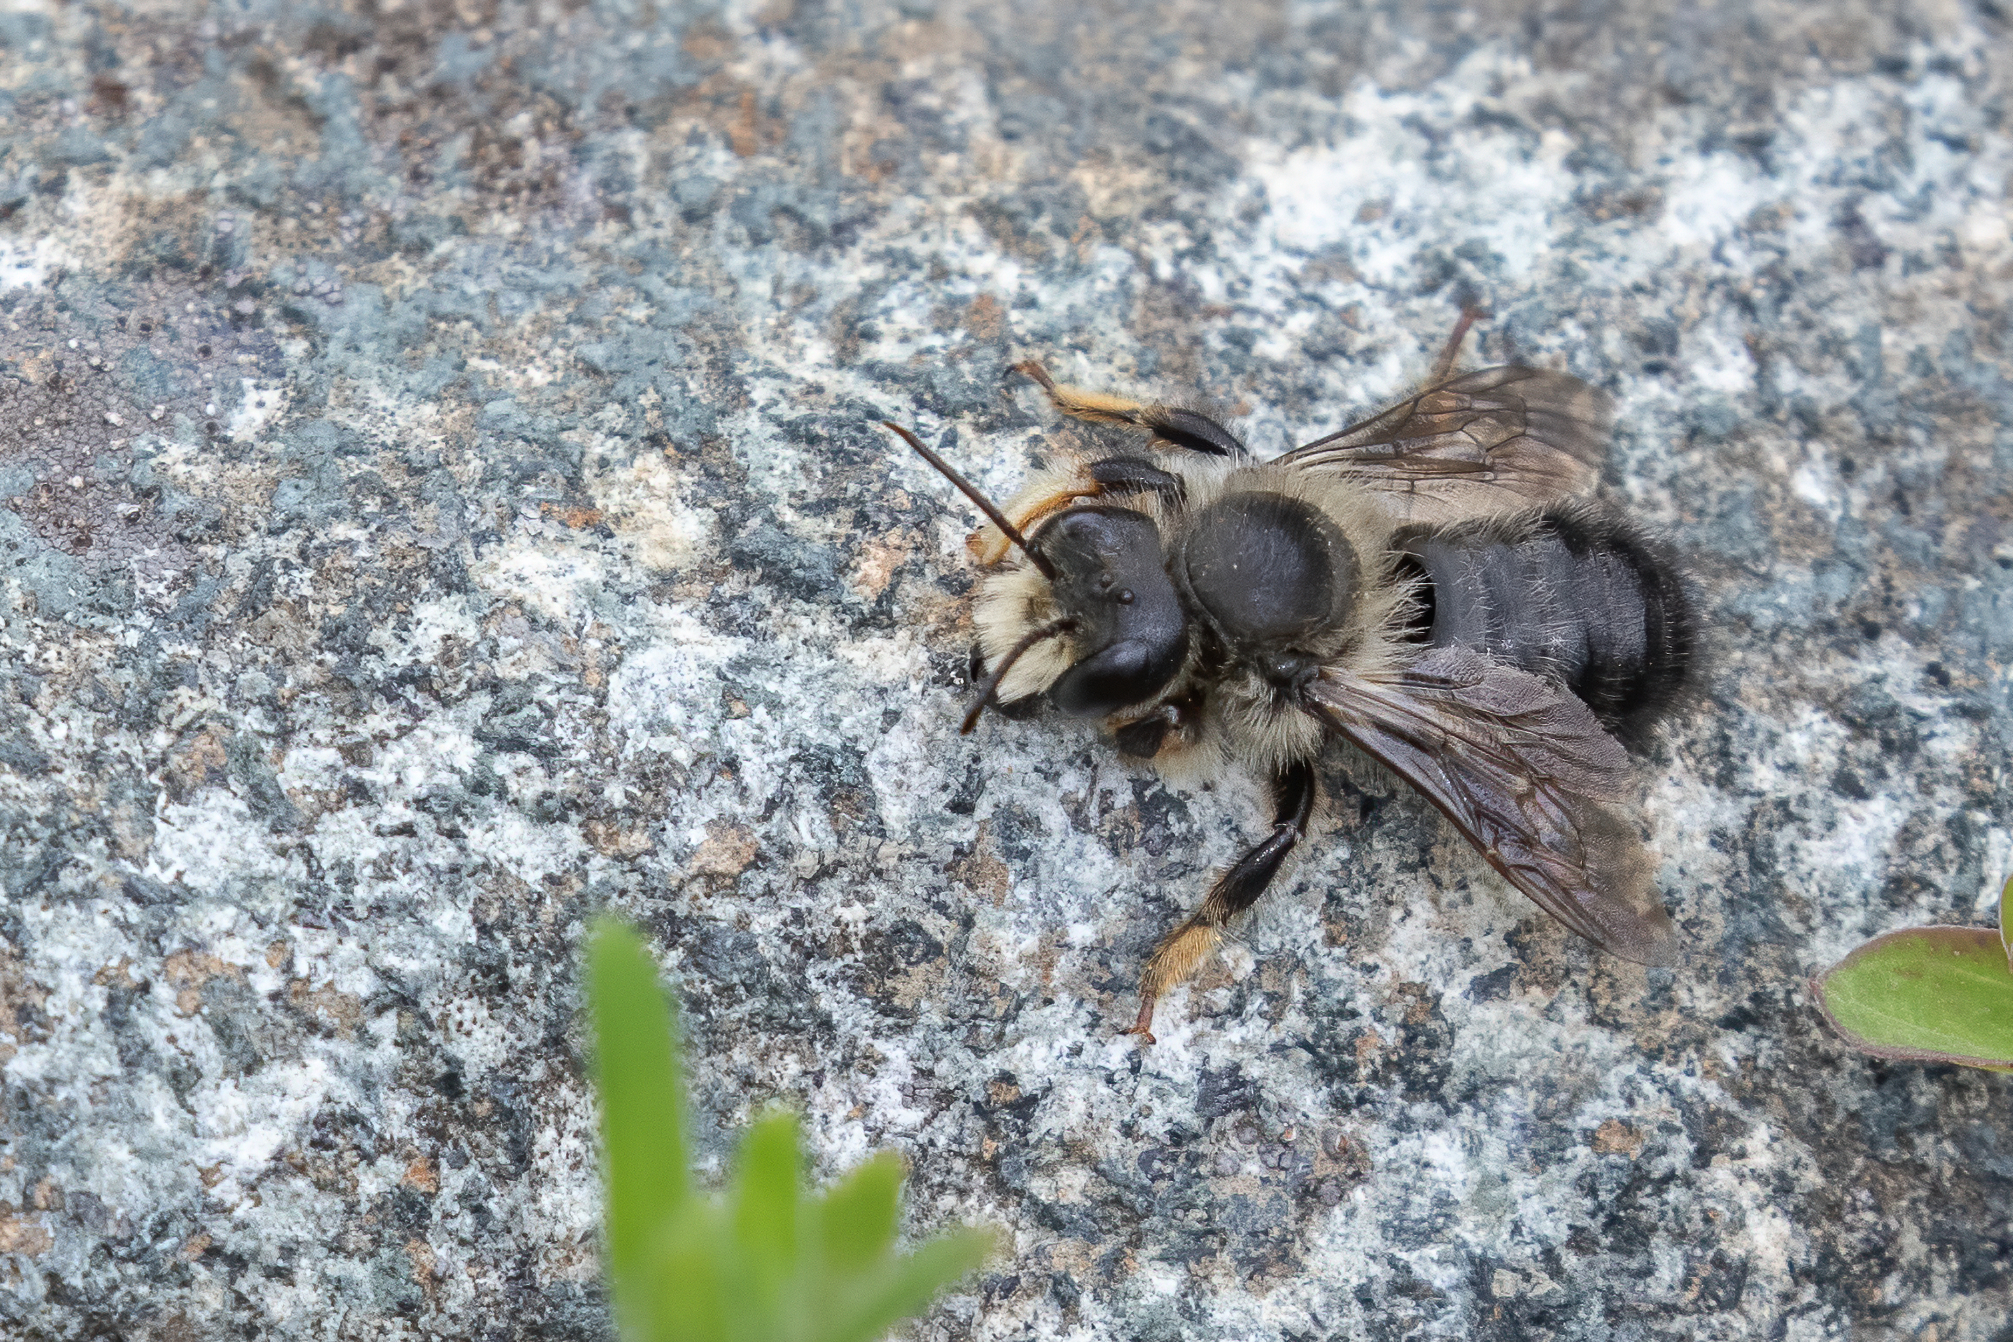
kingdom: Animalia
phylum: Arthropoda
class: Insecta
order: Hymenoptera
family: Megachilidae
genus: Megachile
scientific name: Megachile melanophaea
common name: Black-and-gray leafcutter bee
